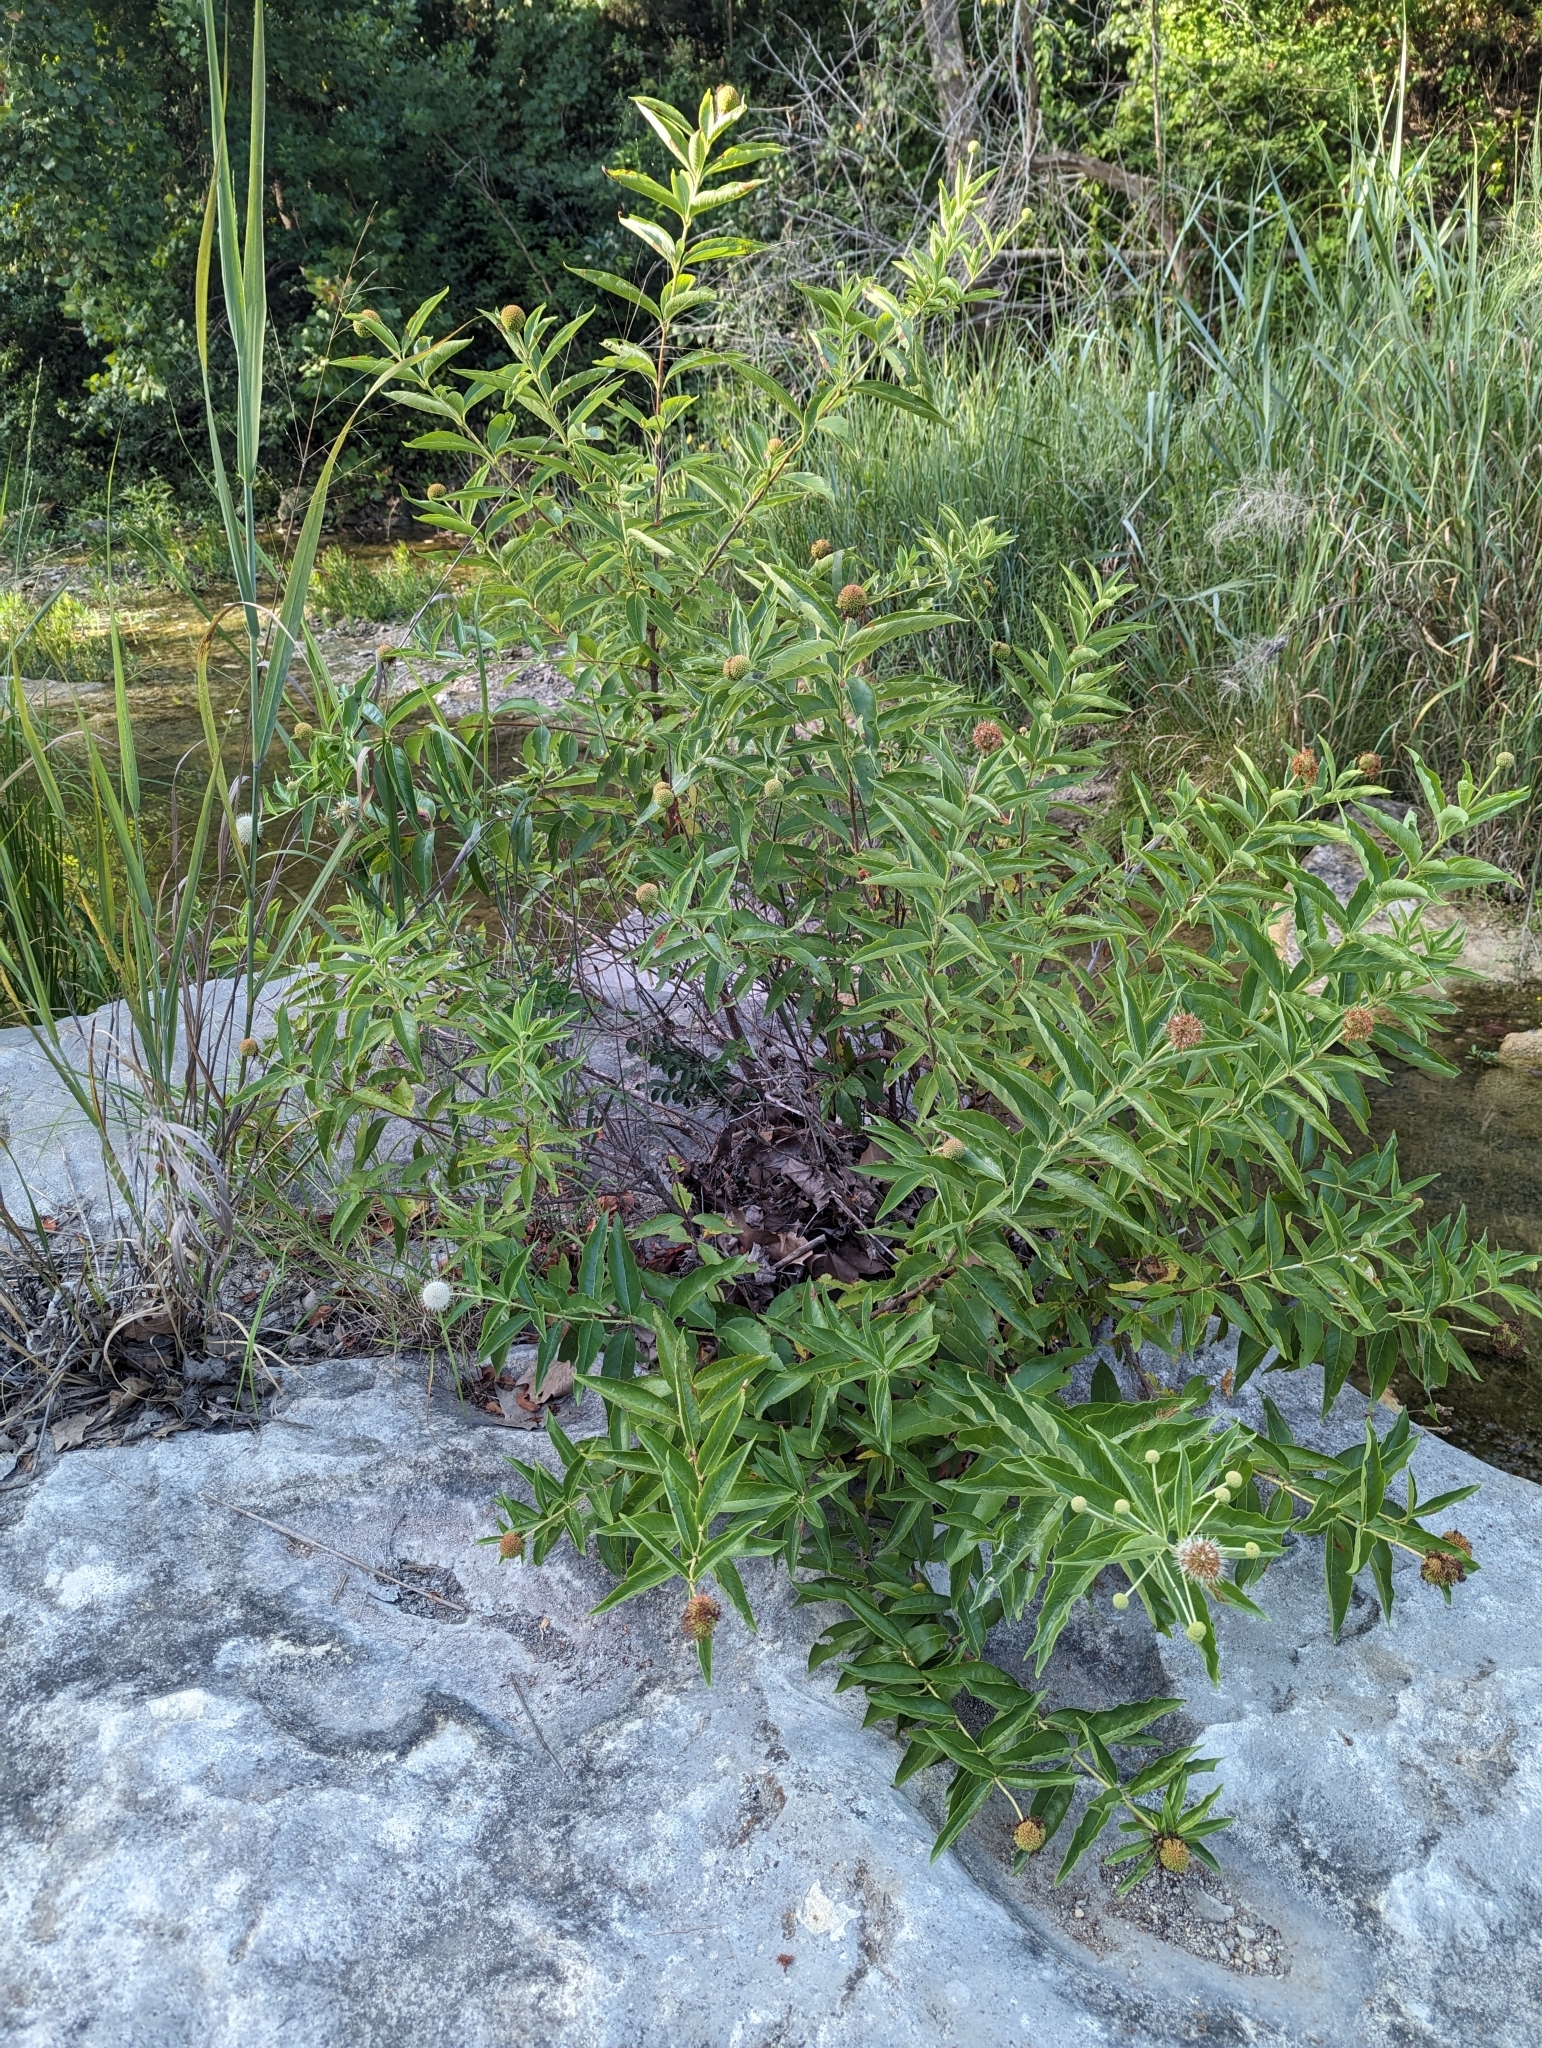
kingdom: Plantae
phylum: Tracheophyta
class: Magnoliopsida
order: Gentianales
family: Rubiaceae
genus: Cephalanthus
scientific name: Cephalanthus occidentalis
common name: Button-willow
